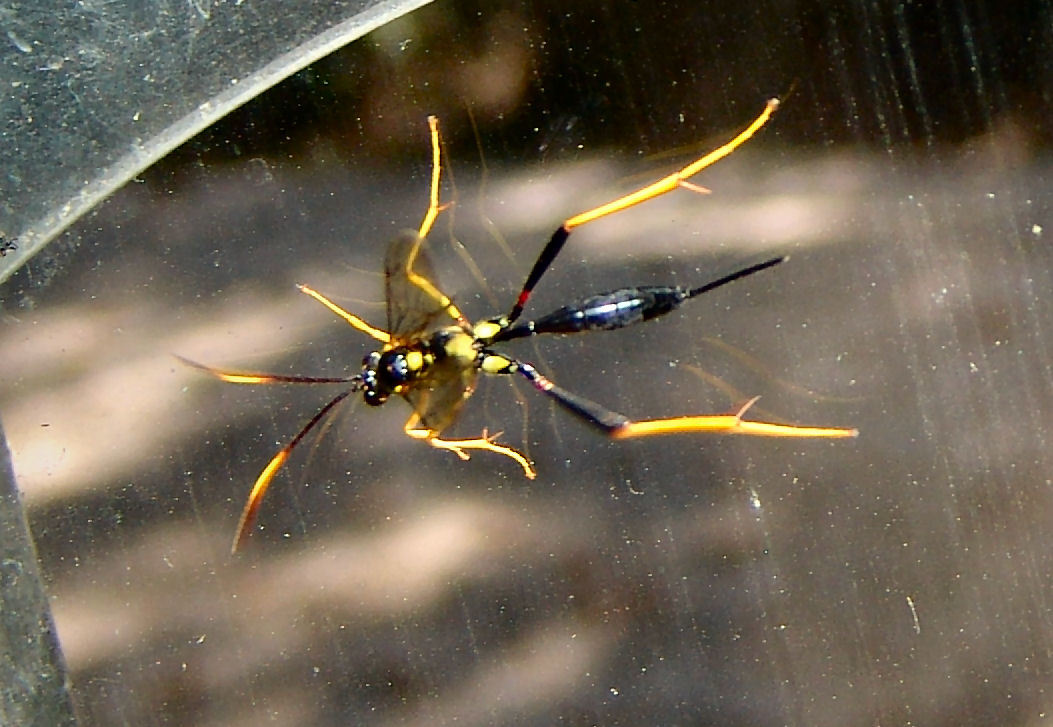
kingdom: Animalia
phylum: Arthropoda
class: Insecta
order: Hymenoptera
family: Ichneumonidae
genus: Acroricnus
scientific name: Acroricnus stylator
